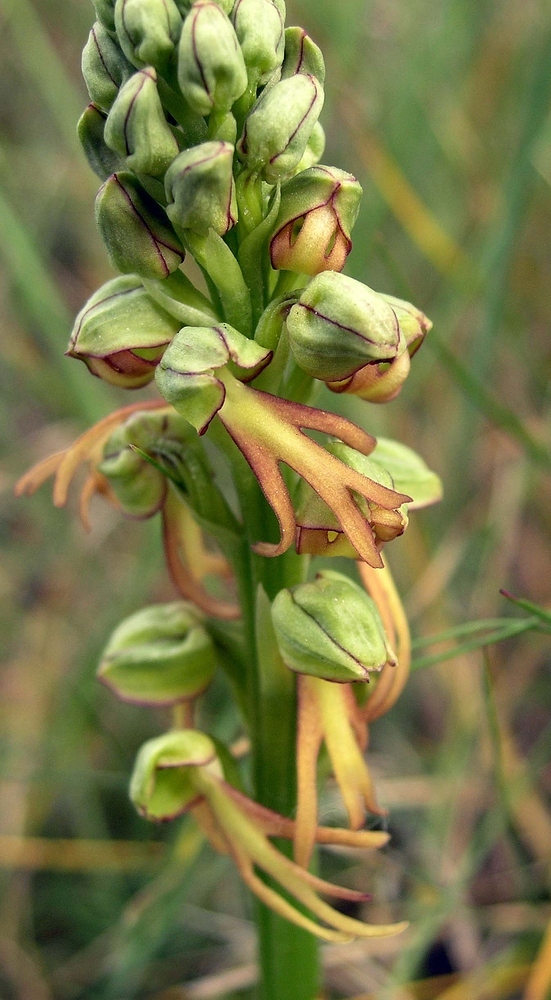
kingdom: Plantae
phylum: Tracheophyta
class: Liliopsida
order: Asparagales
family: Orchidaceae
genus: Orchis
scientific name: Orchis anthropophora
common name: Man orchid
